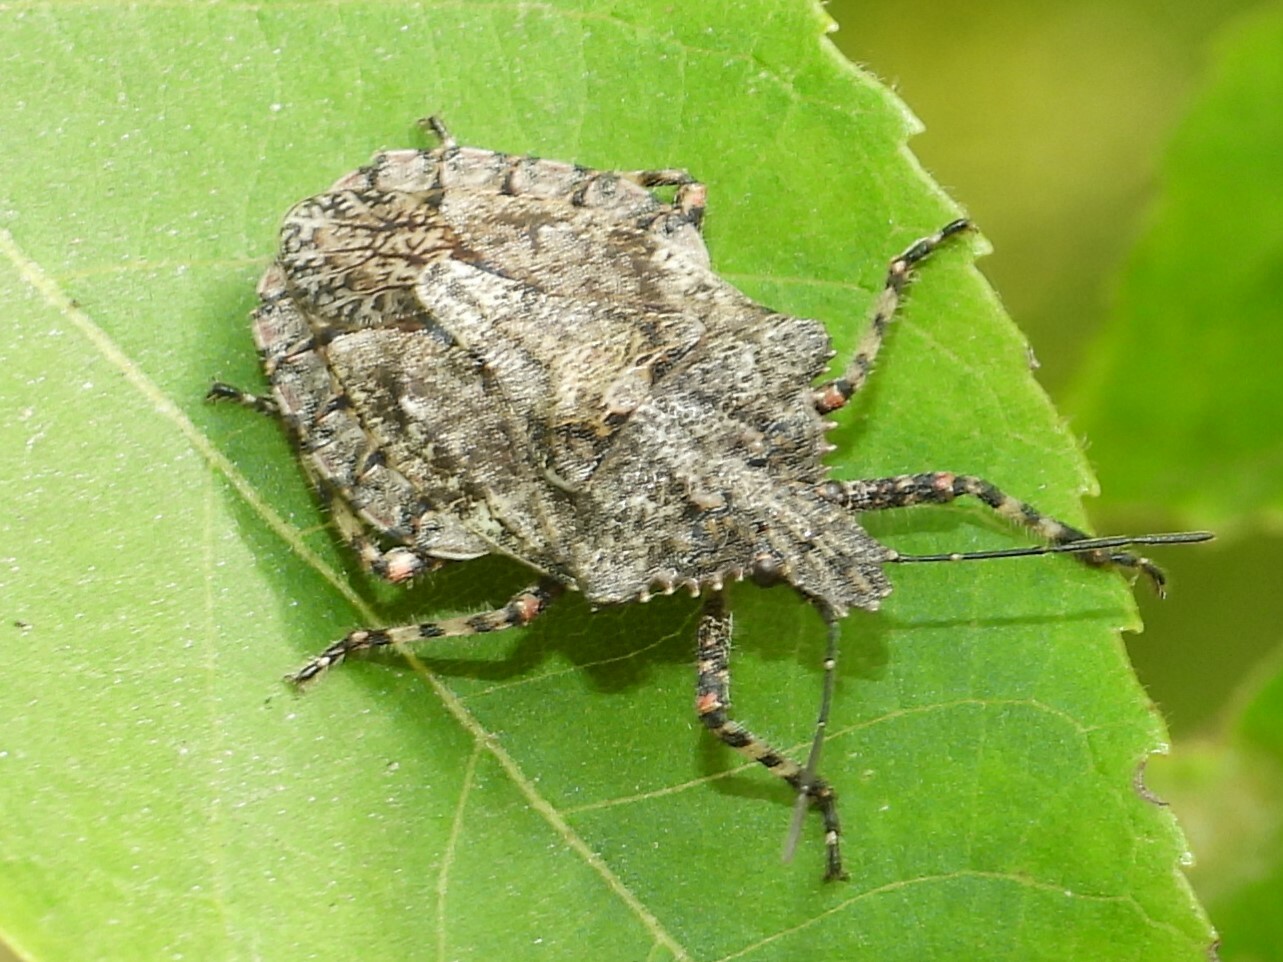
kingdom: Animalia
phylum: Arthropoda
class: Insecta
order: Hemiptera
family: Pentatomidae
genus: Brochymena
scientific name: Brochymena arborea
